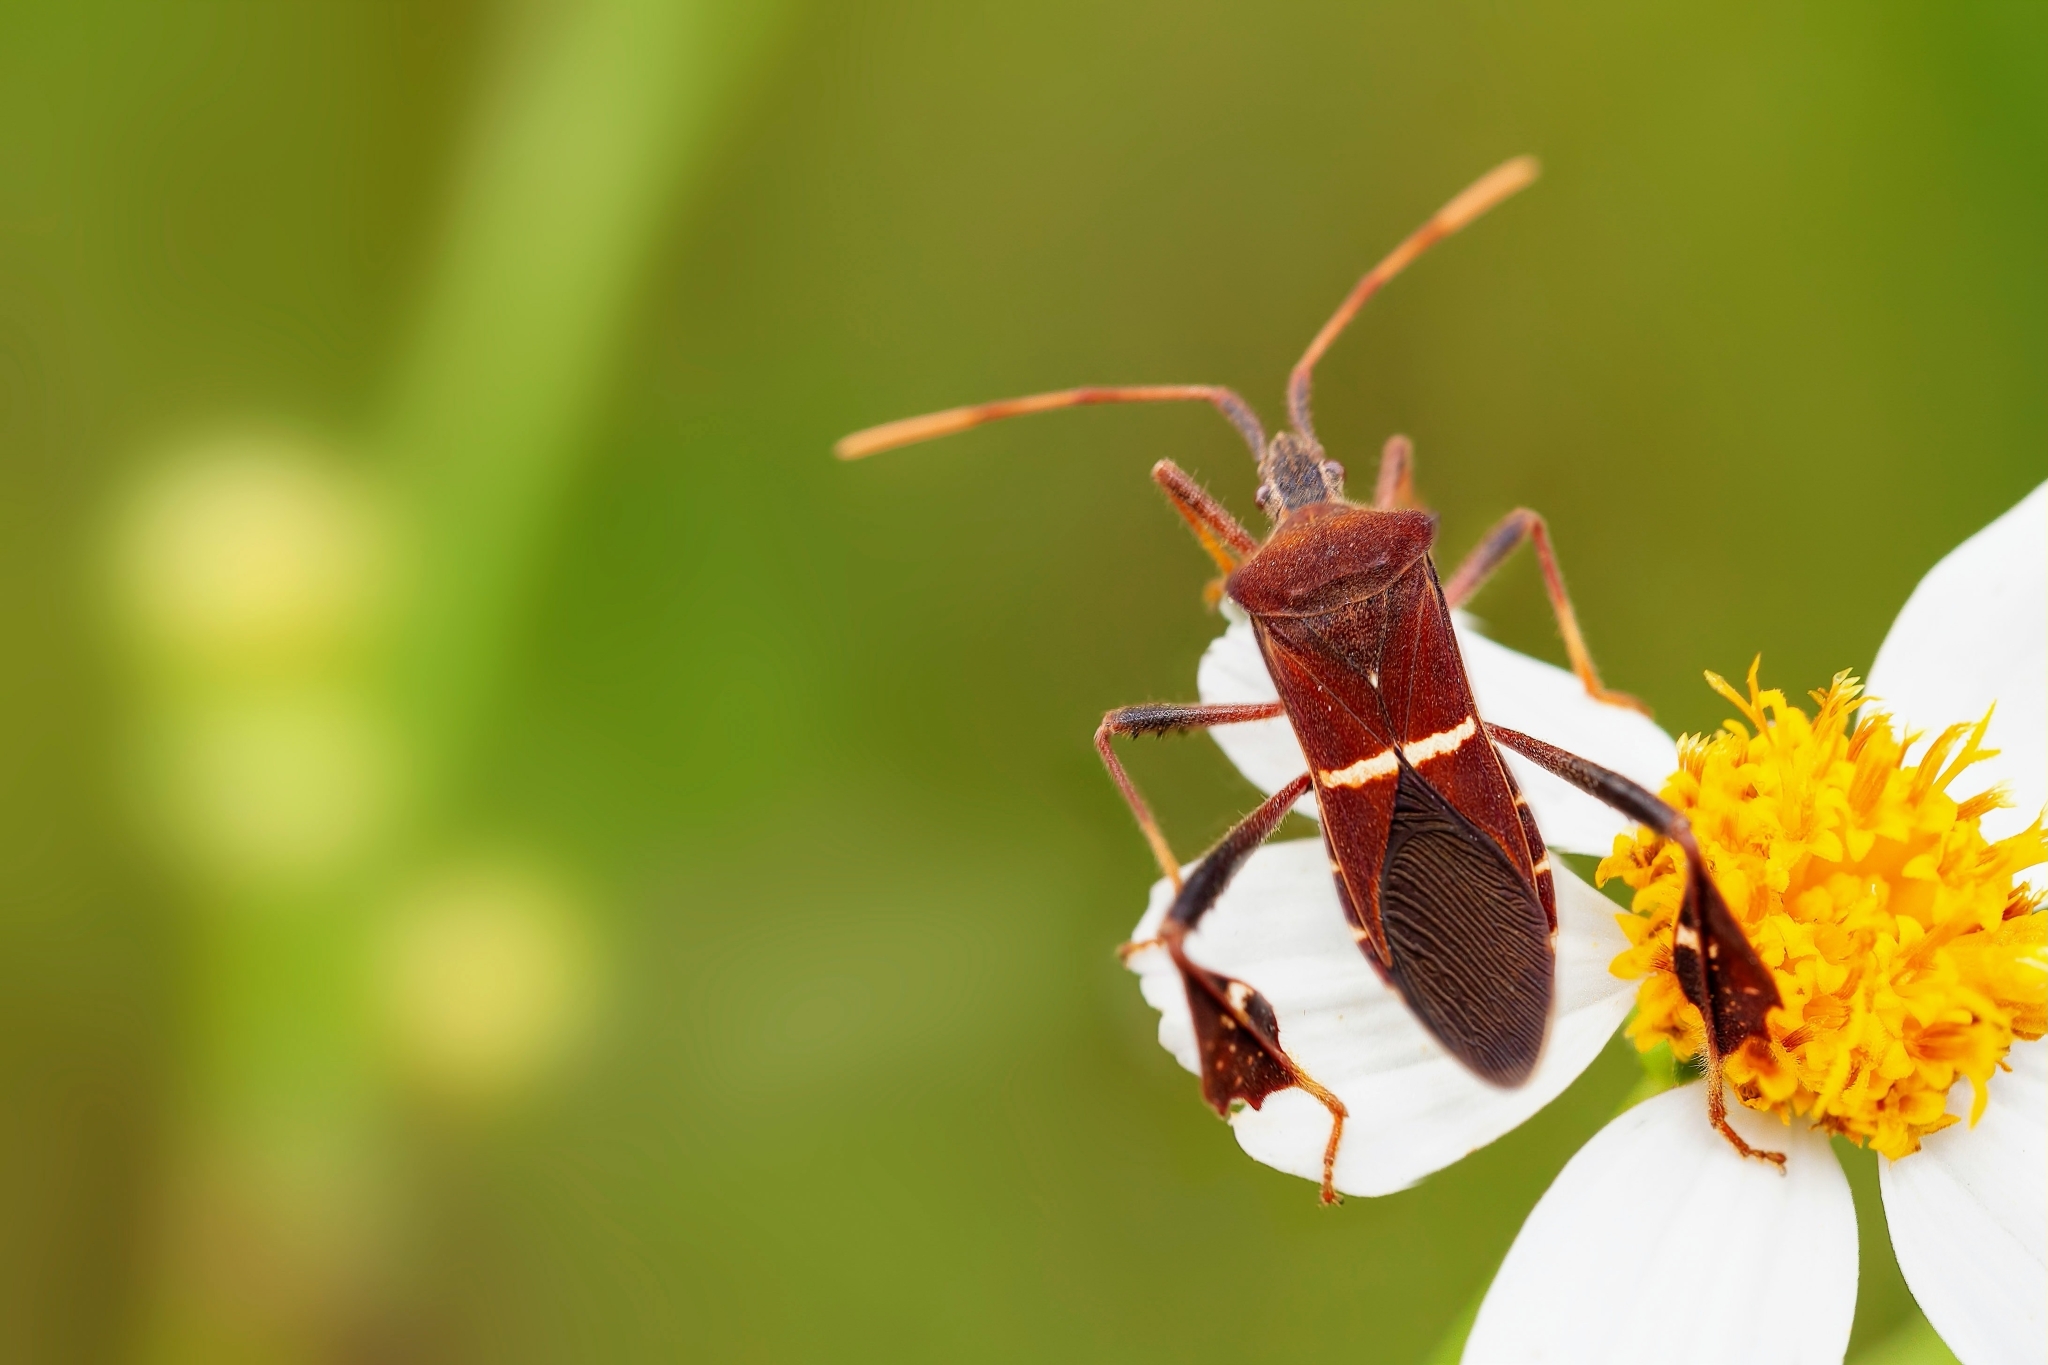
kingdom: Animalia
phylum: Arthropoda
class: Insecta
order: Hemiptera
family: Coreidae
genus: Leptoglossus
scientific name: Leptoglossus phyllopus
